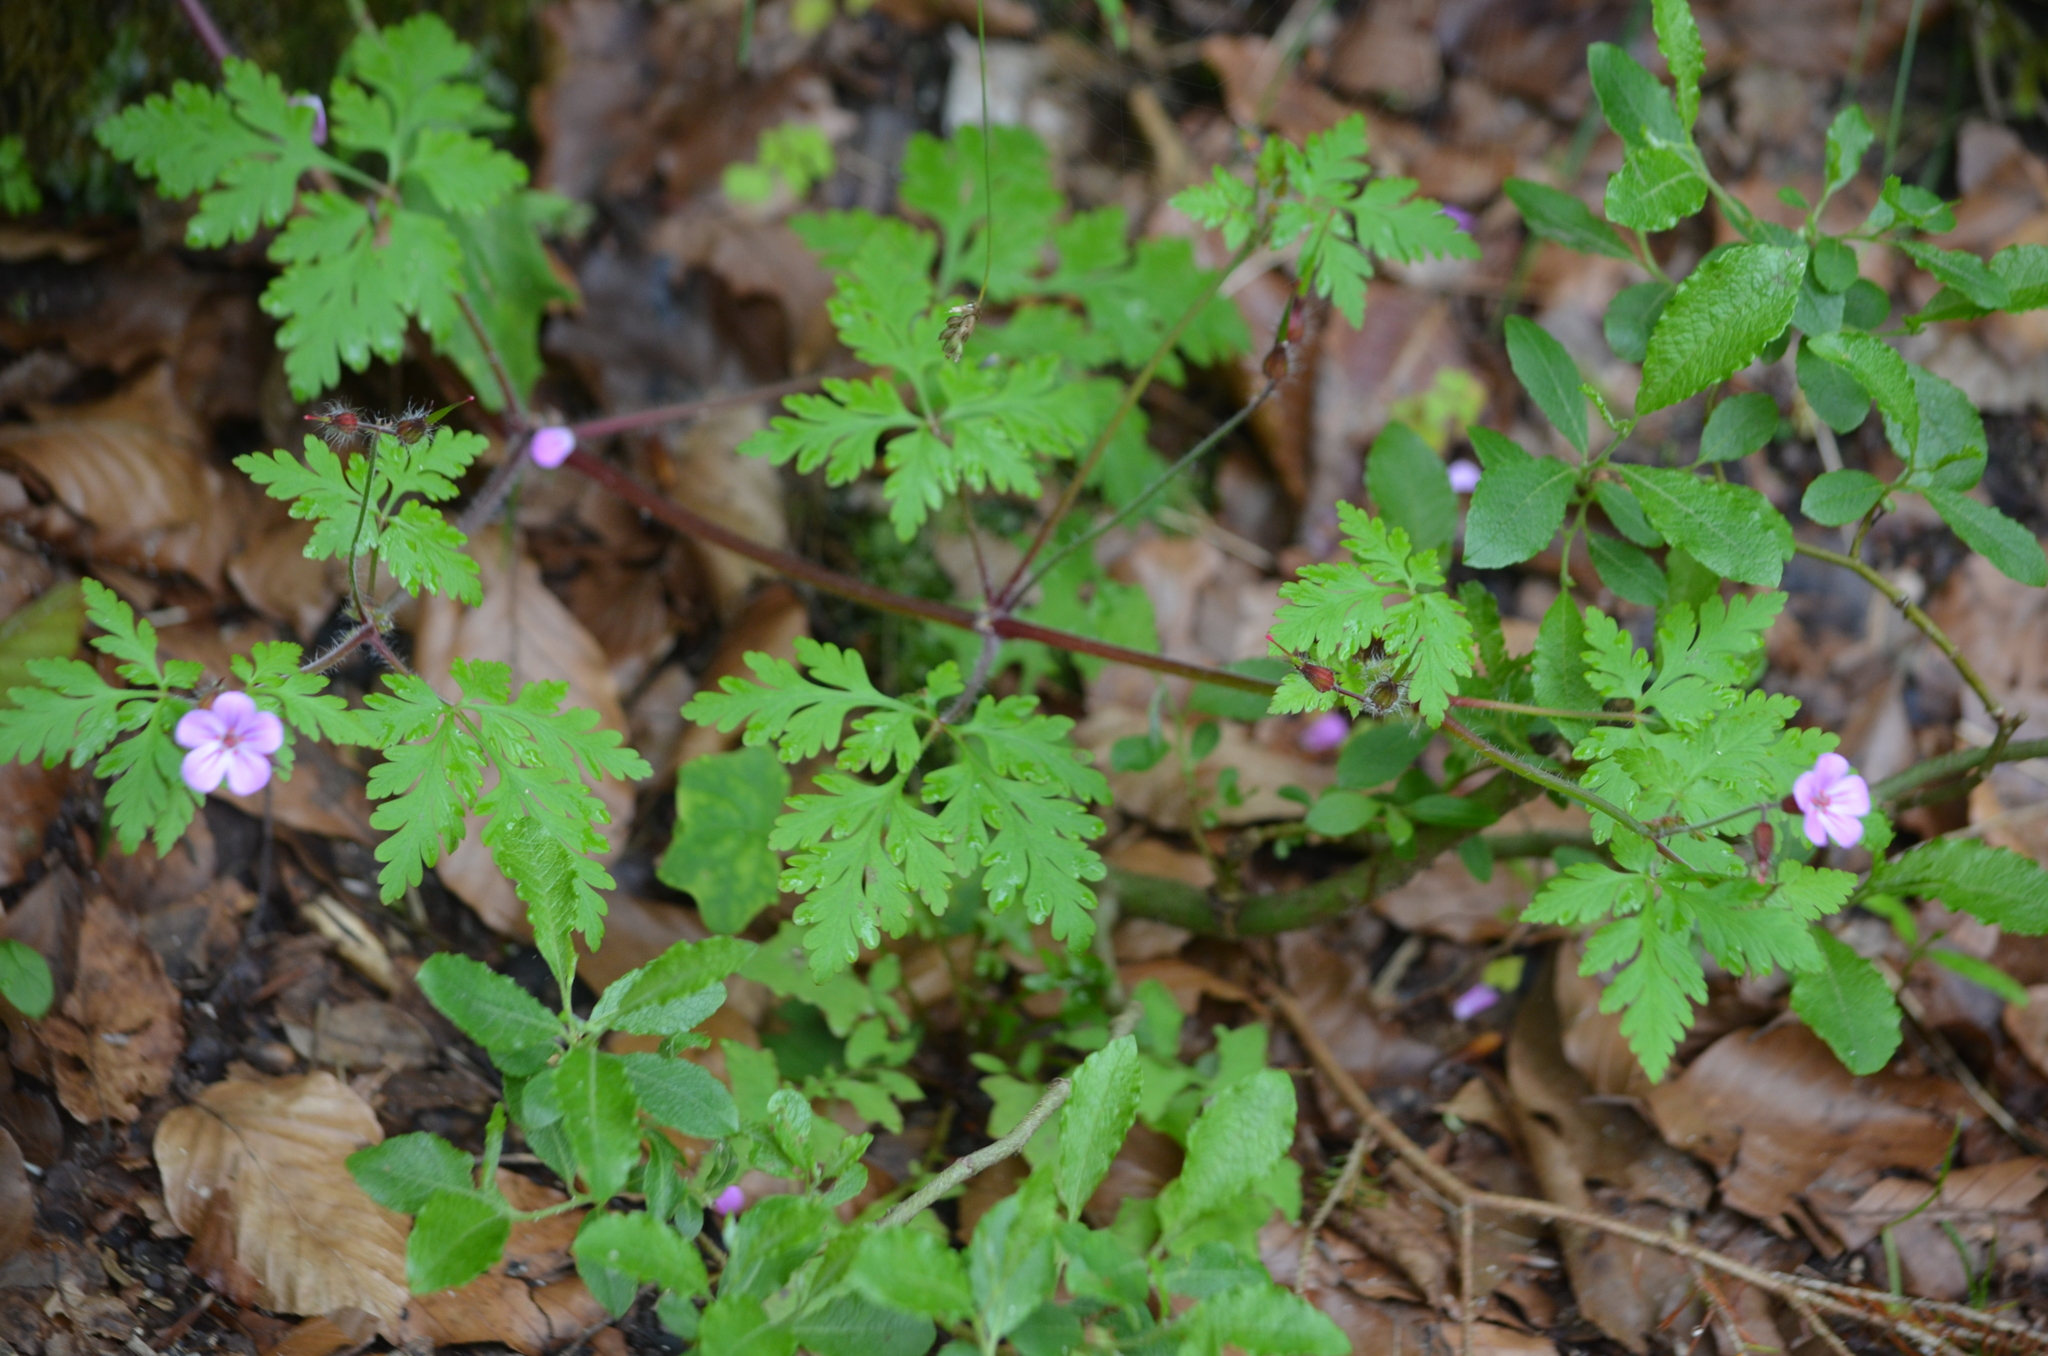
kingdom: Plantae
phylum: Tracheophyta
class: Magnoliopsida
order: Geraniales
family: Geraniaceae
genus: Geranium
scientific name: Geranium robertianum
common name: Herb-robert
